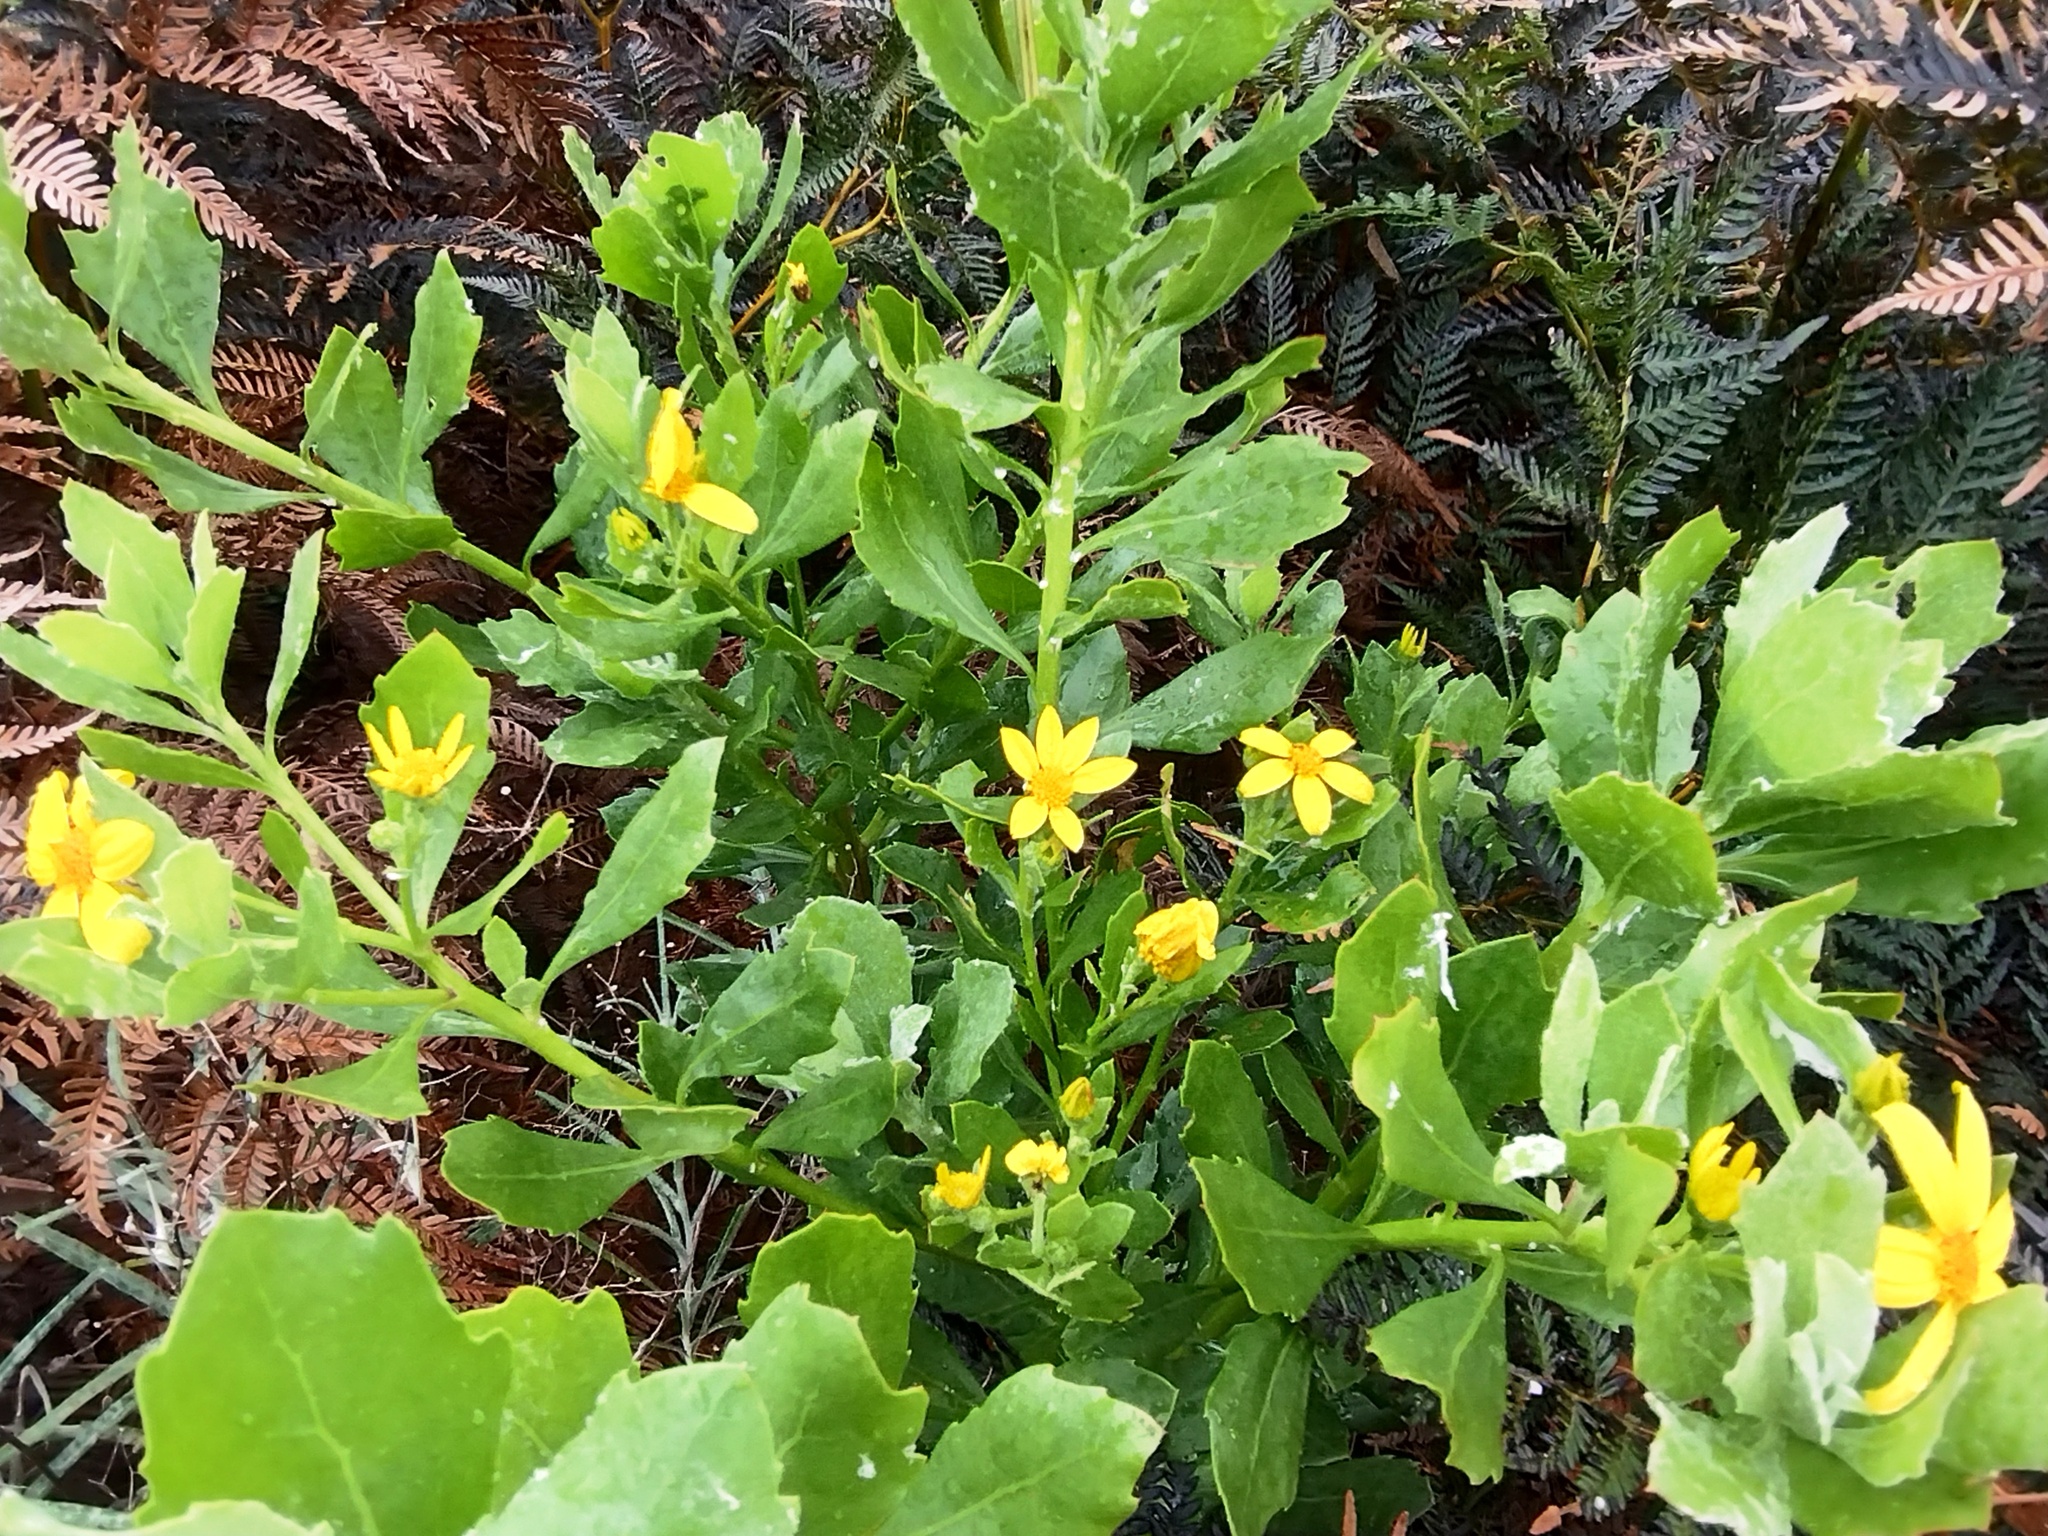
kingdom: Plantae
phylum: Tracheophyta
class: Magnoliopsida
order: Asterales
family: Asteraceae
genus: Osteospermum
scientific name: Osteospermum moniliferum
